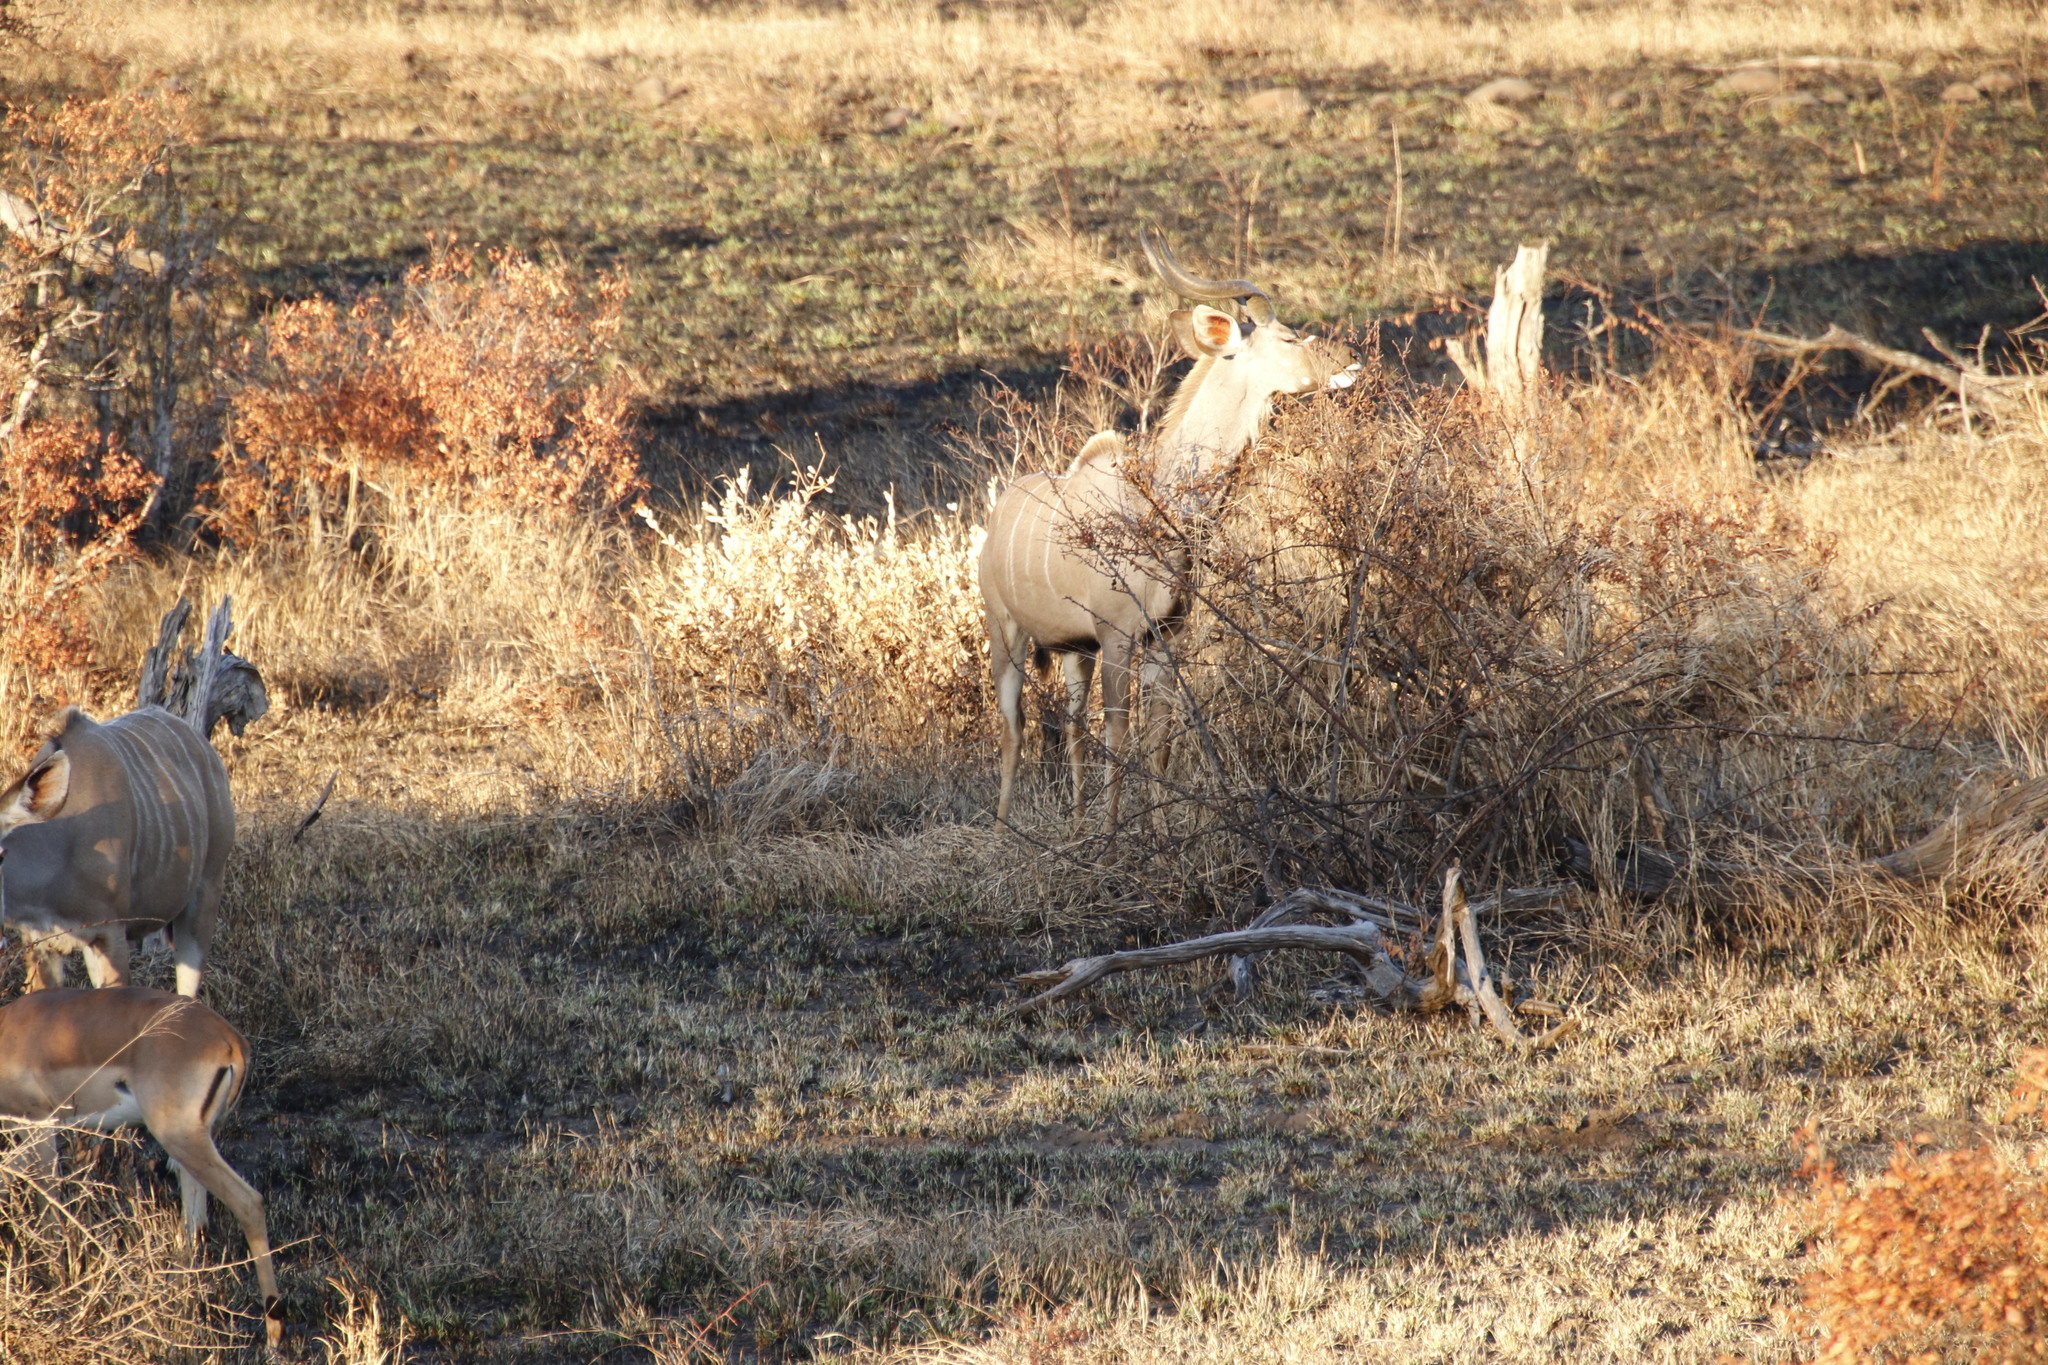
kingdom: Animalia
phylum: Chordata
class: Mammalia
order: Artiodactyla
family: Bovidae
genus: Tragelaphus
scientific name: Tragelaphus strepsiceros
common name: Greater kudu
